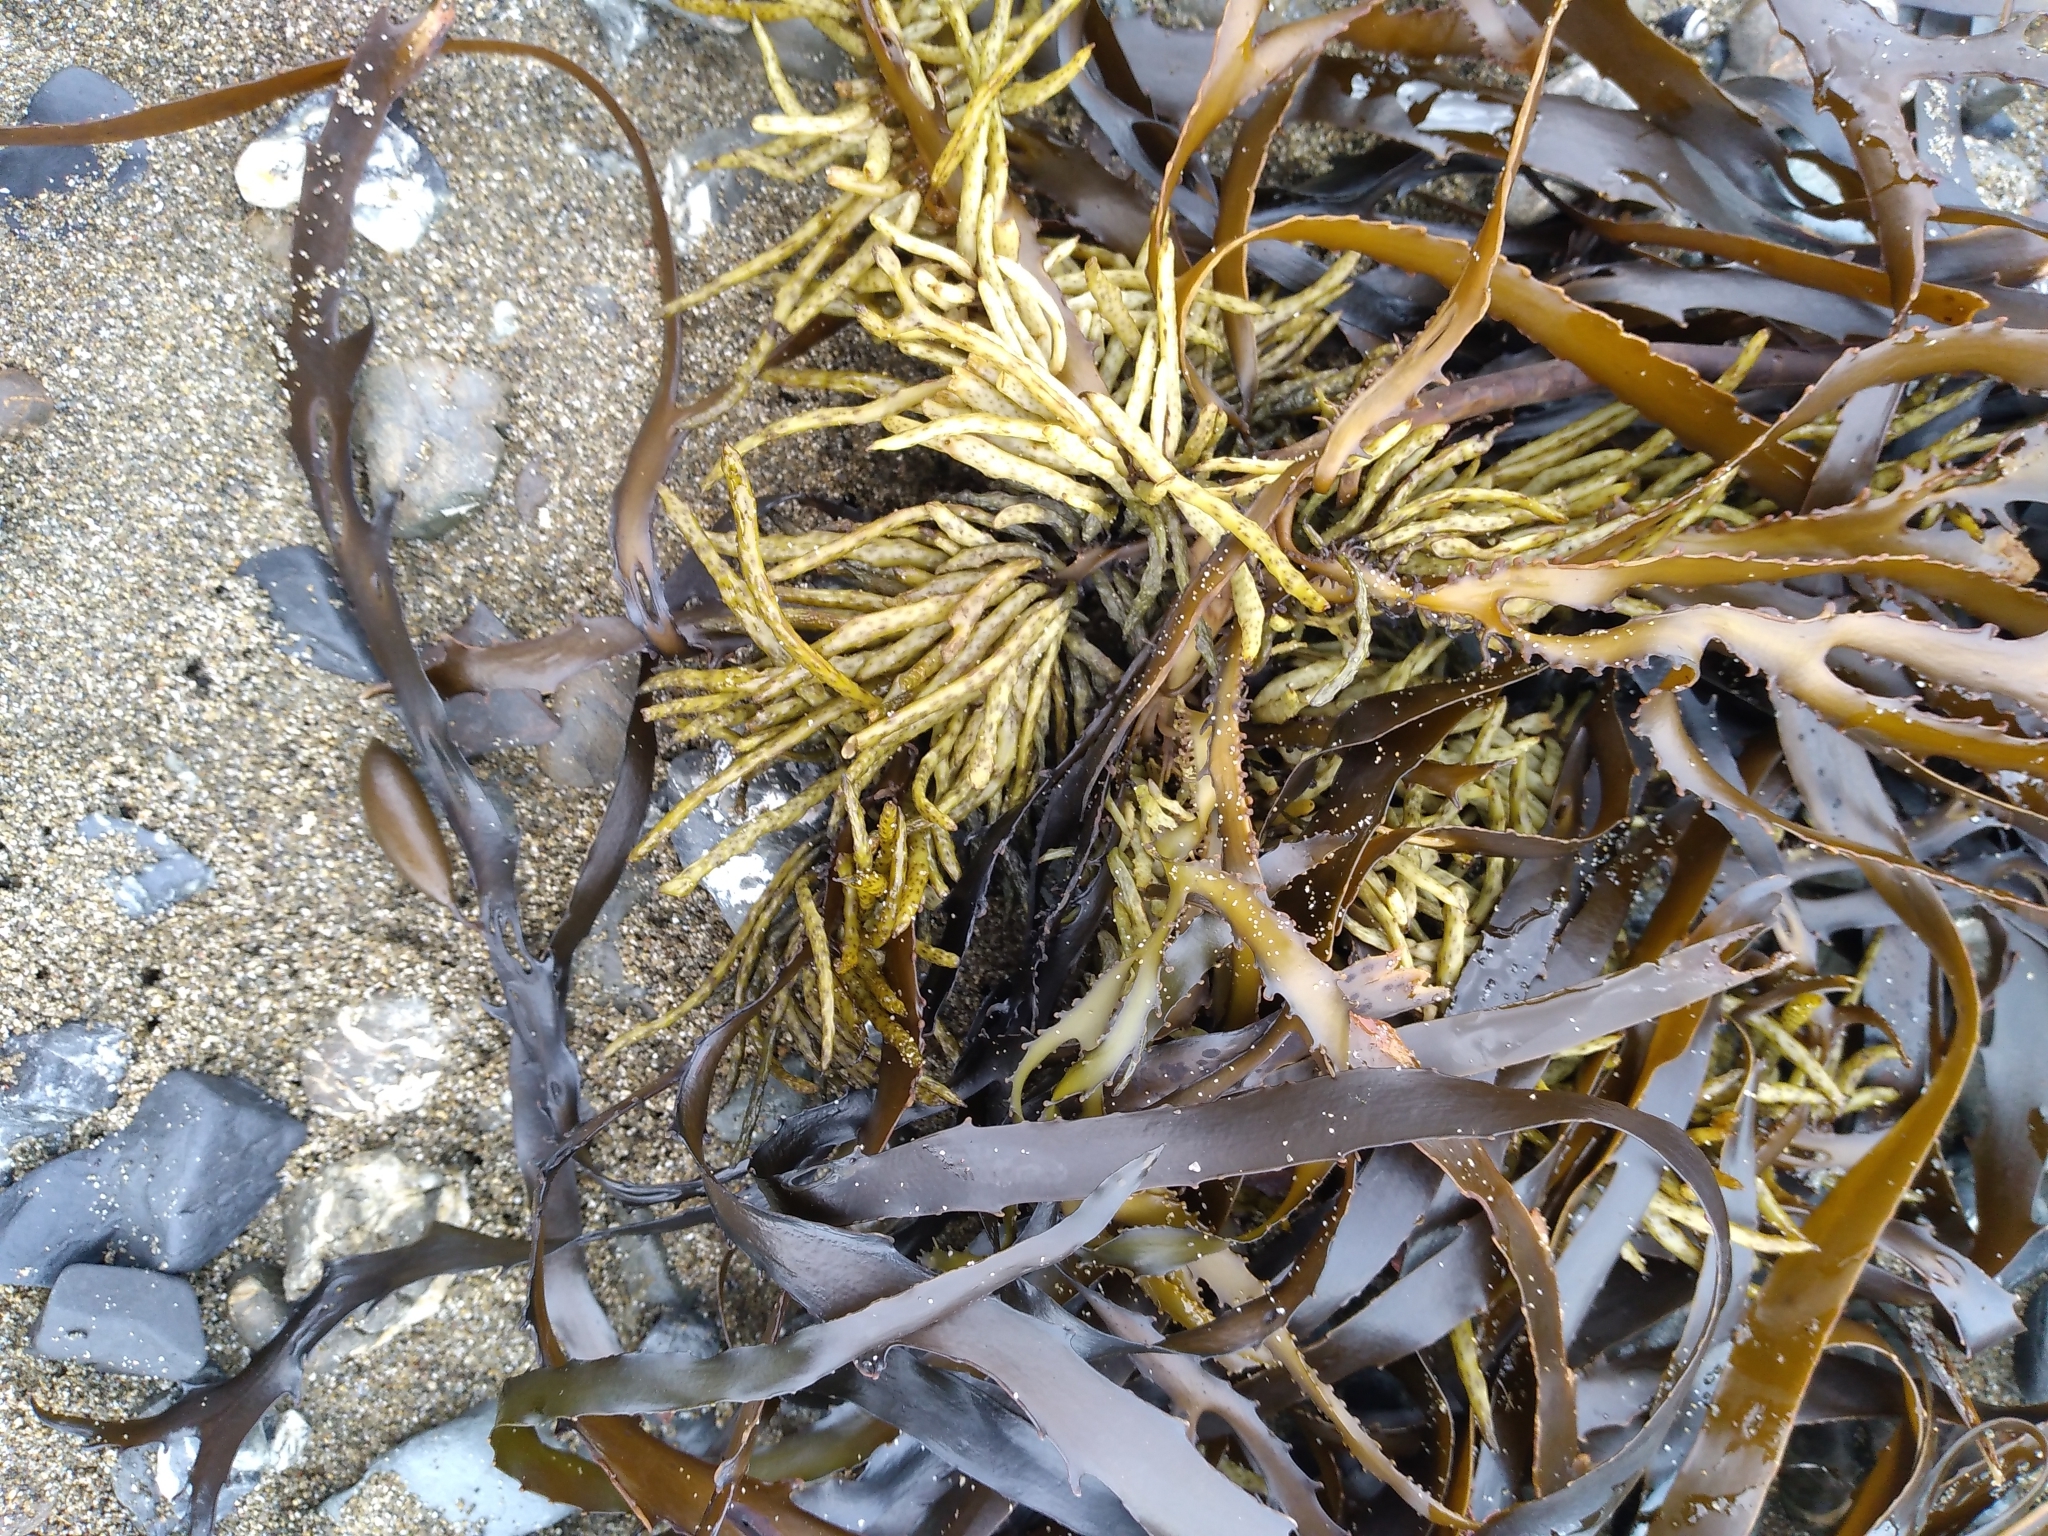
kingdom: Chromista
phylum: Ochrophyta
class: Phaeophyceae
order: Fucales
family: Seirococcaceae
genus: Marginariella
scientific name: Marginariella boryana
